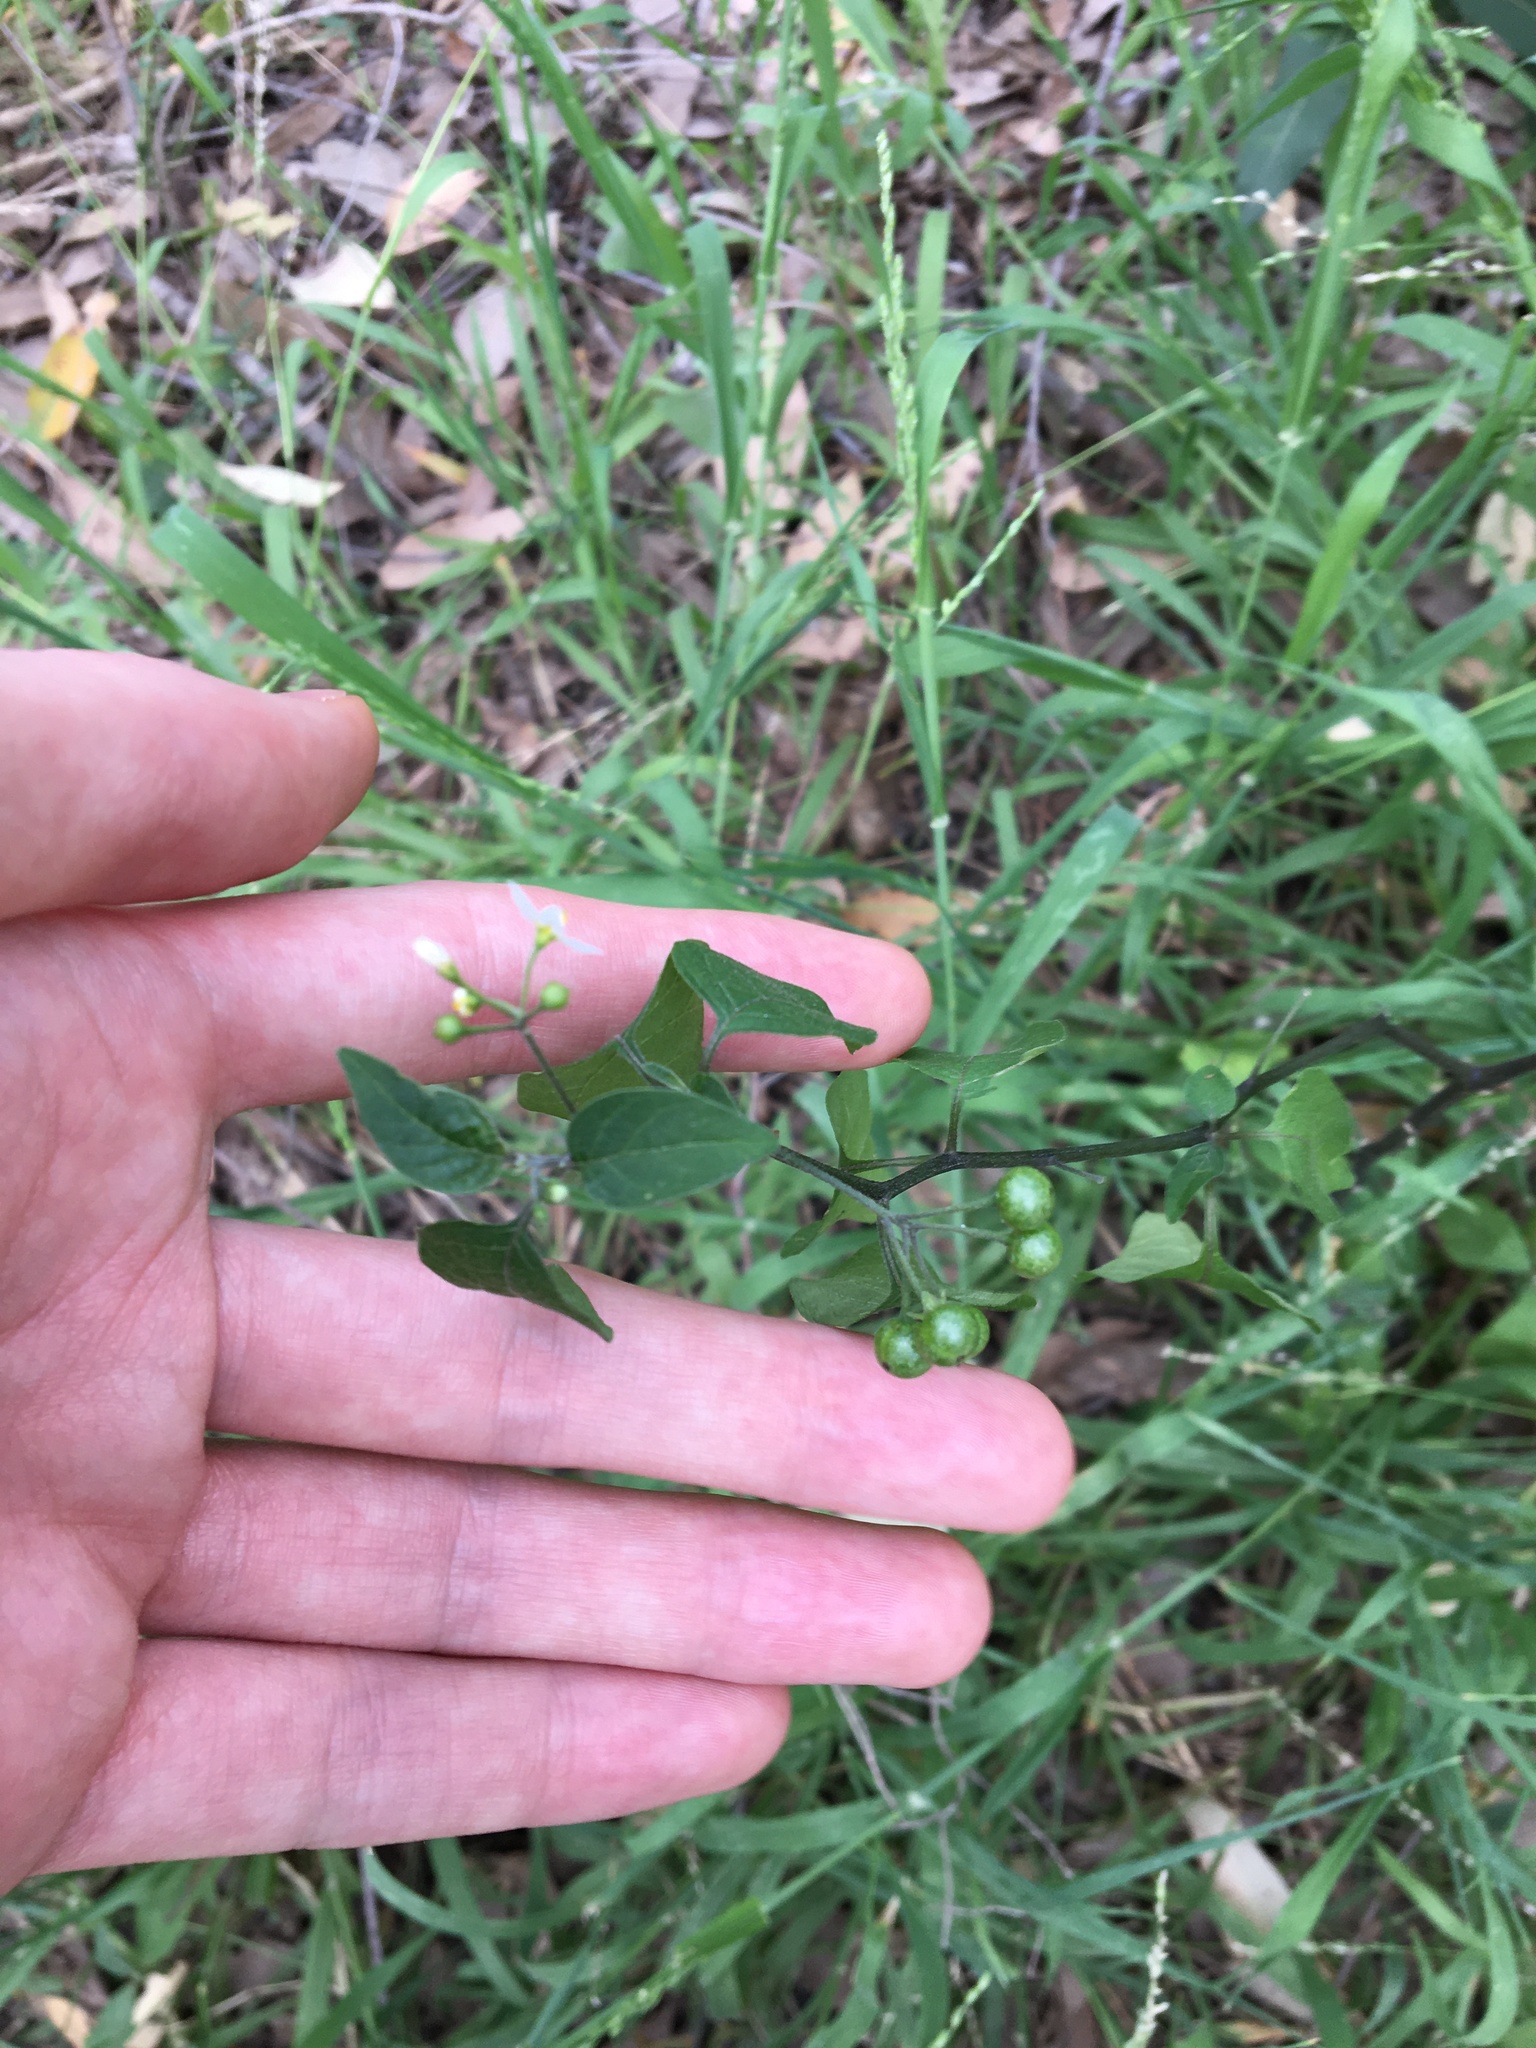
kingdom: Plantae
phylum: Tracheophyta
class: Magnoliopsida
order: Solanales
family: Solanaceae
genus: Solanum
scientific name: Solanum americanum
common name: American black nightshade
